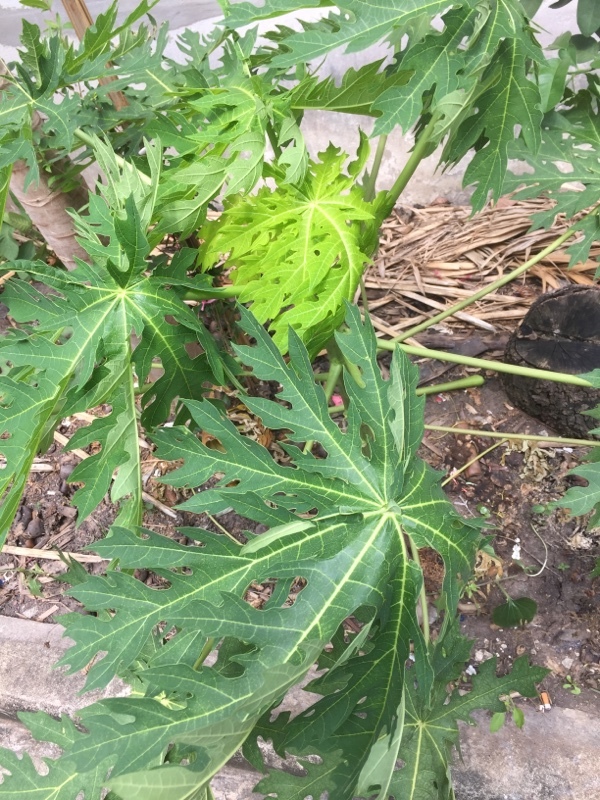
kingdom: Plantae
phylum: Tracheophyta
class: Magnoliopsida
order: Brassicales
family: Caricaceae
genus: Carica
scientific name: Carica papaya
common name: Papaya
